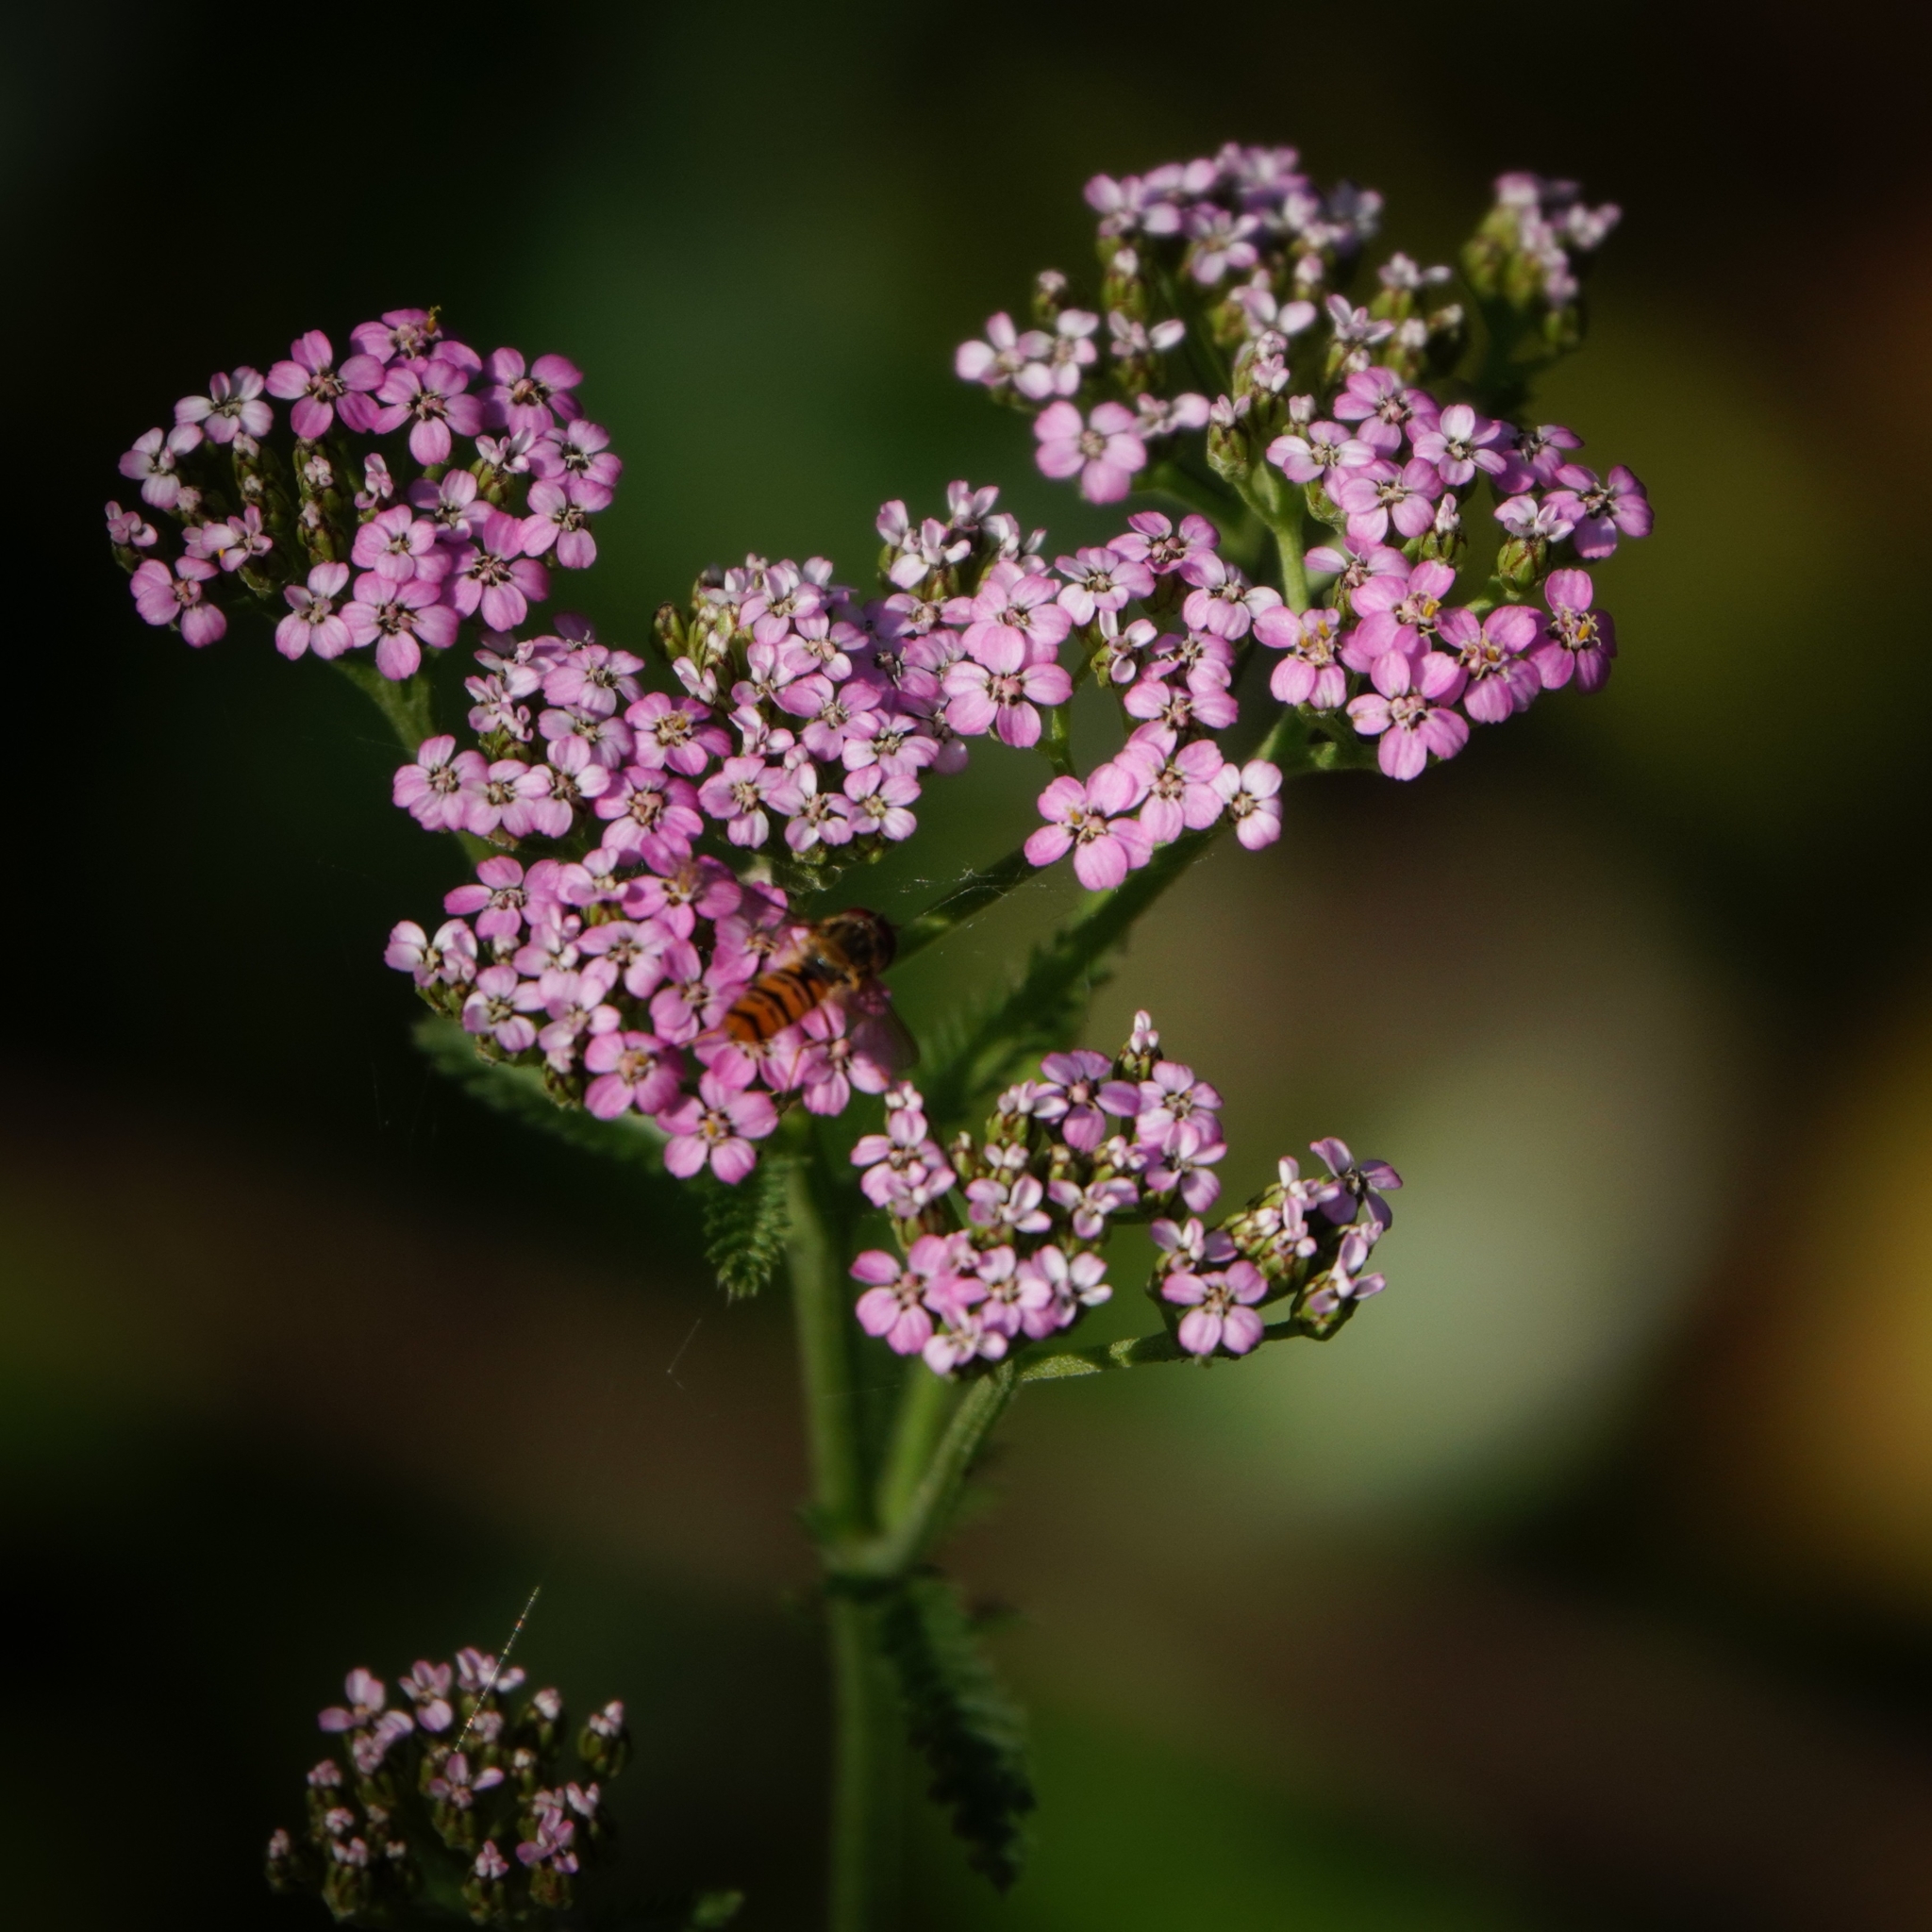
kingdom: Plantae
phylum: Tracheophyta
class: Magnoliopsida
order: Asterales
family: Asteraceae
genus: Achillea
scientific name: Achillea millefolium
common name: Yarrow
